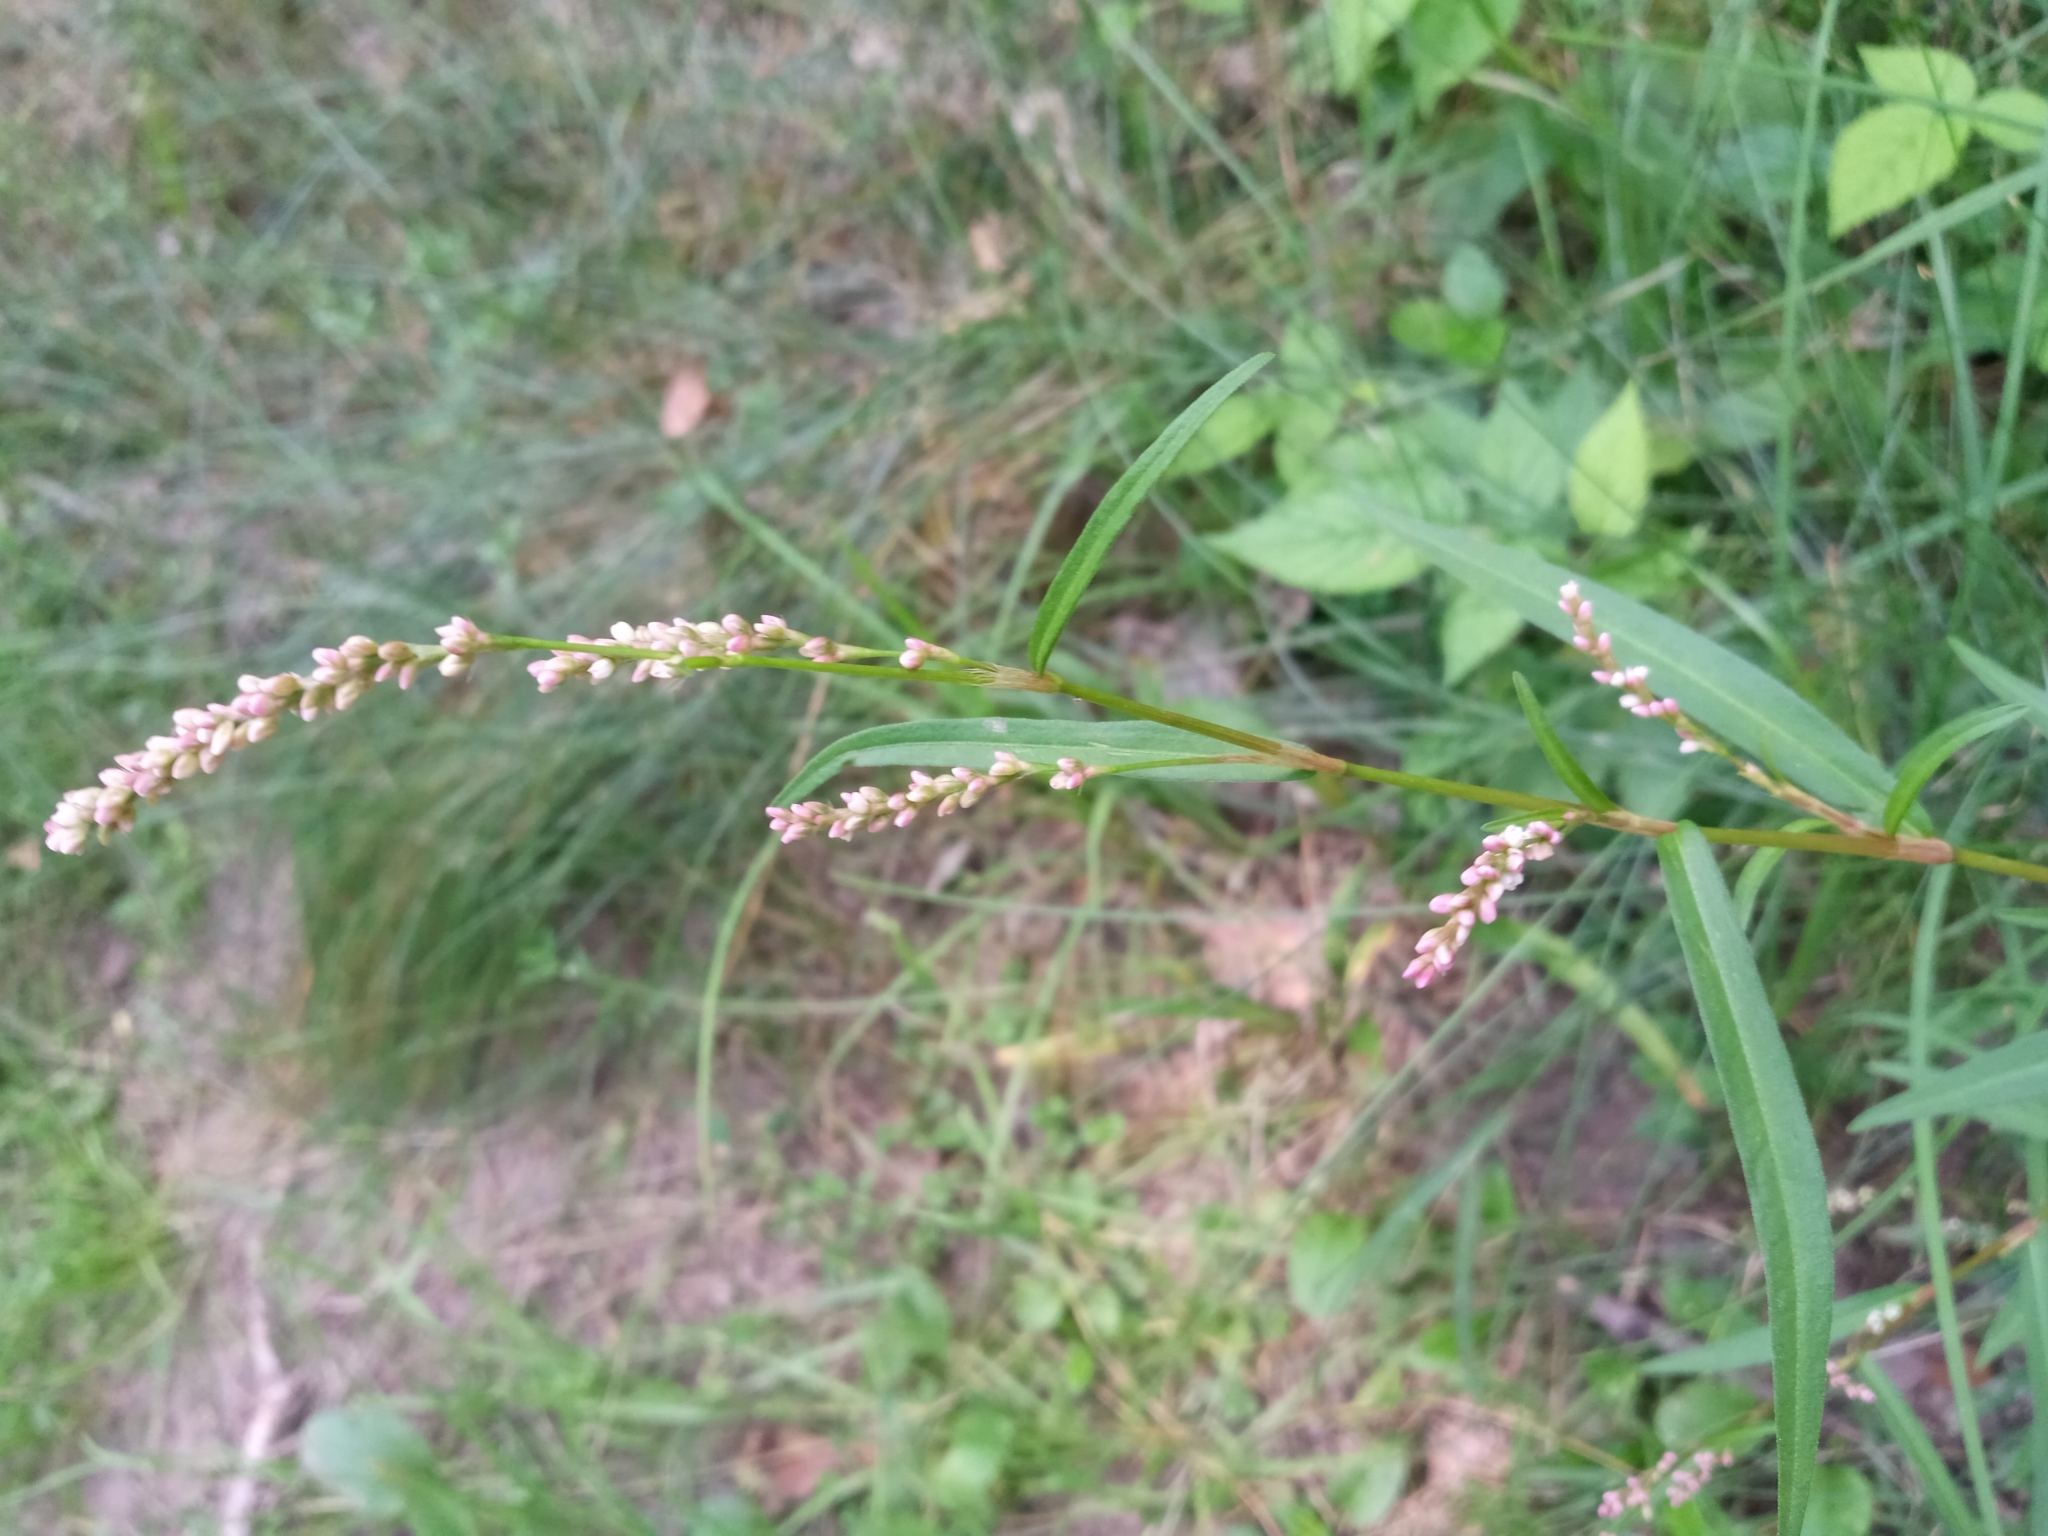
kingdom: Plantae
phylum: Tracheophyta
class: Magnoliopsida
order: Caryophyllales
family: Polygonaceae
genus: Persicaria
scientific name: Persicaria minor
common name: Small water-pepper
